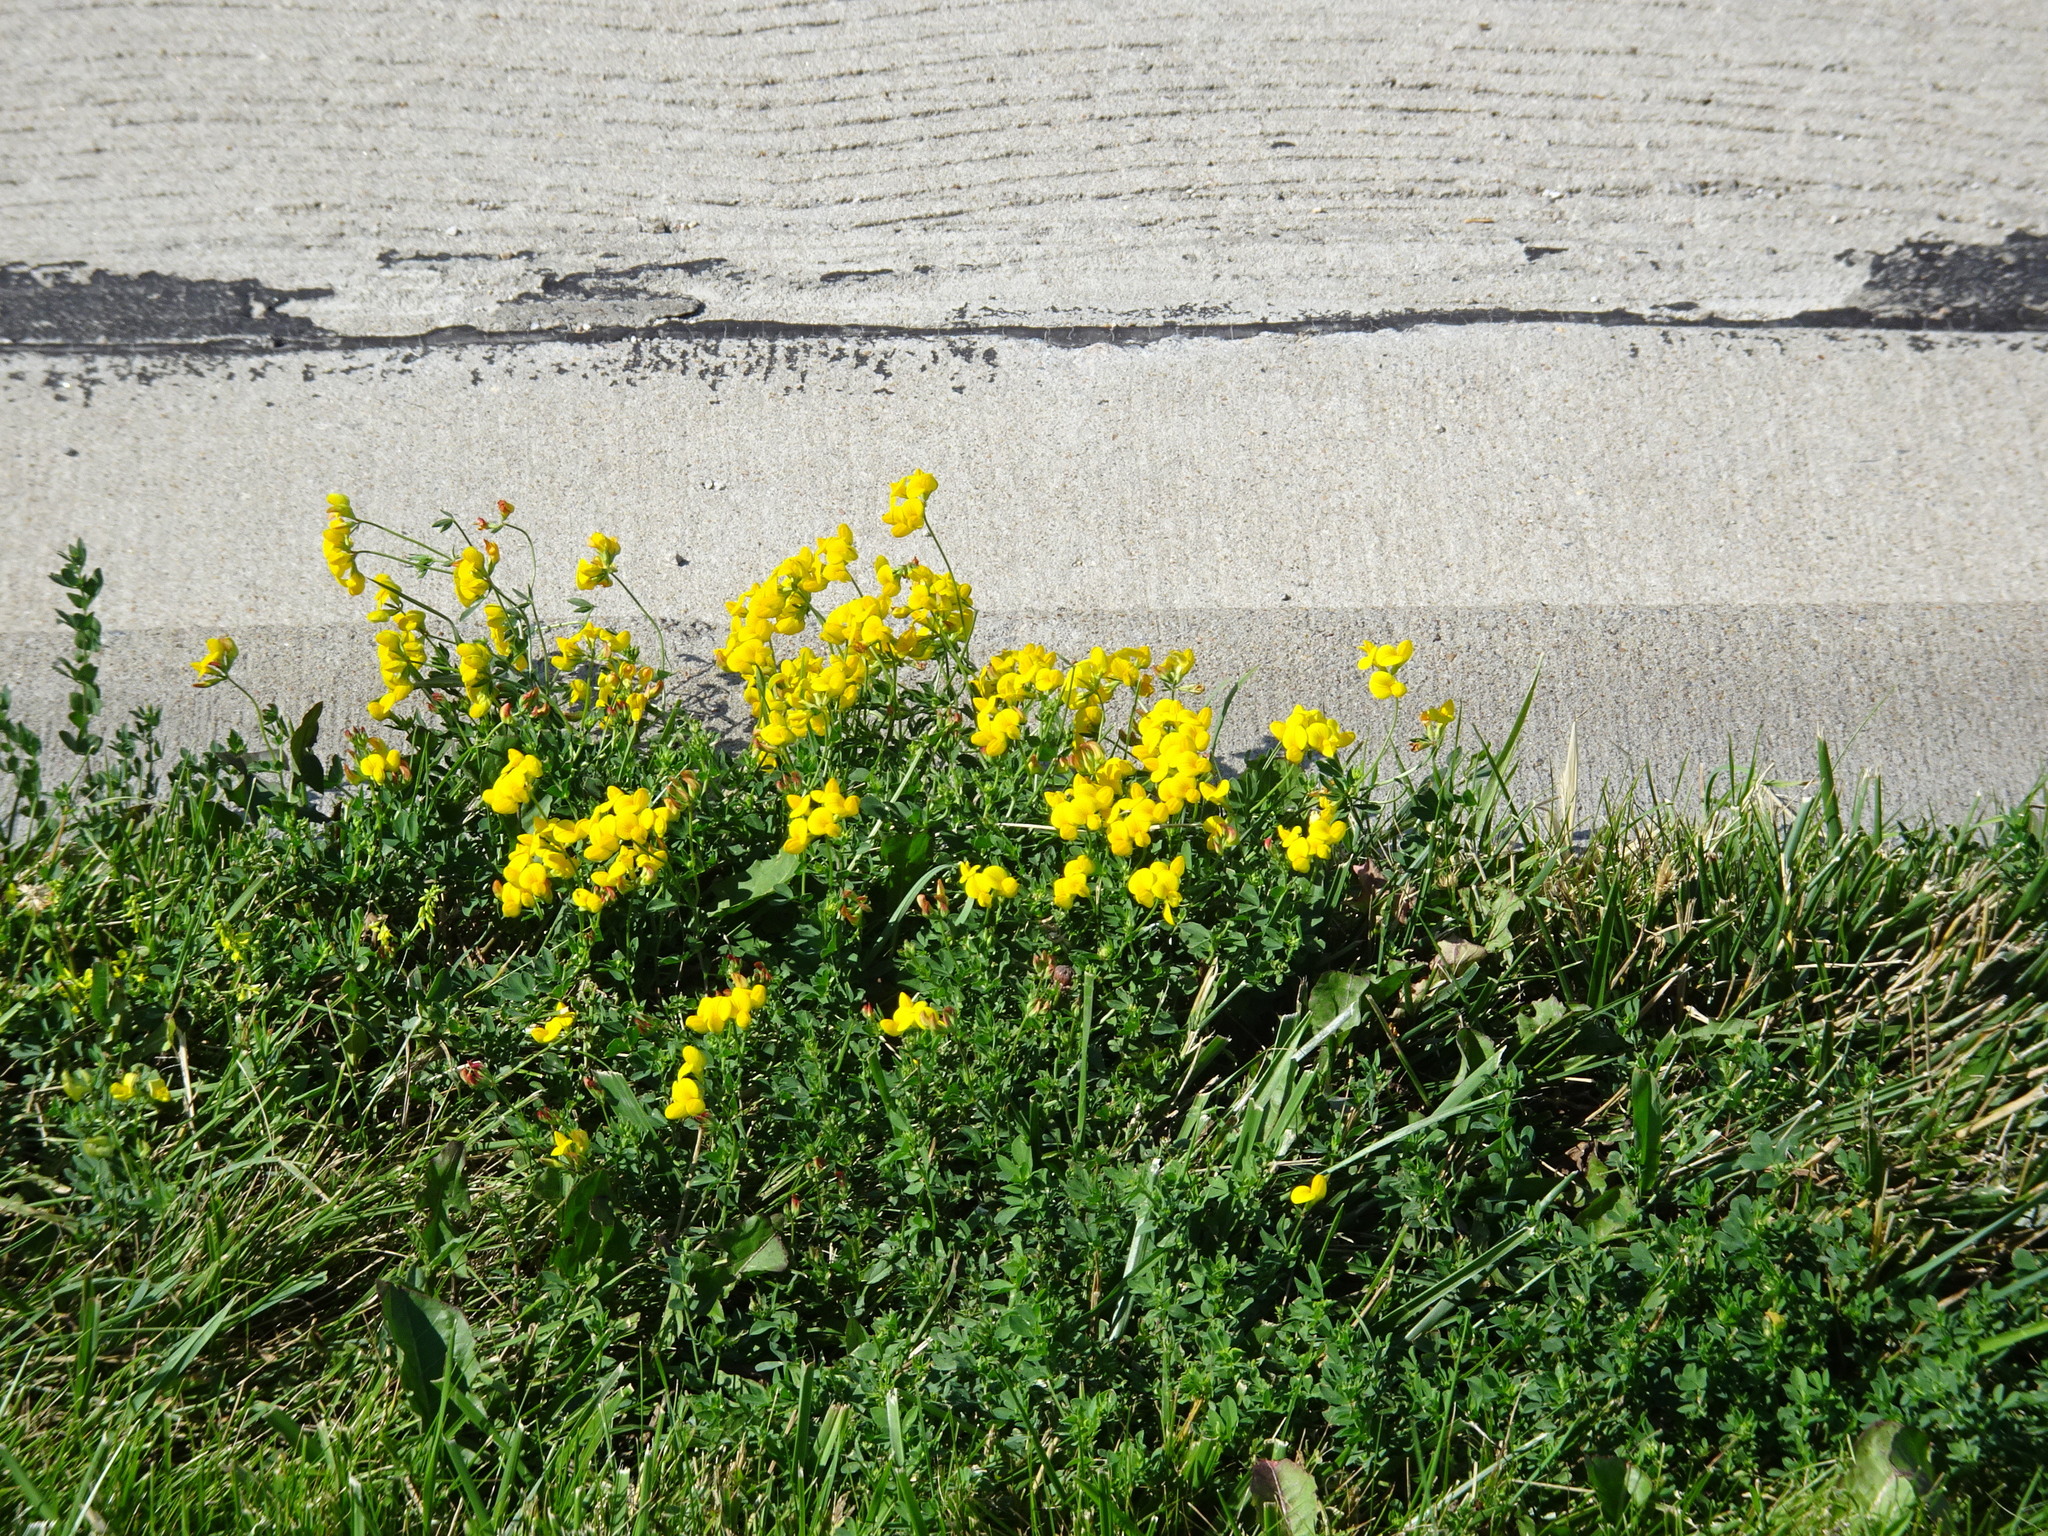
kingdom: Plantae
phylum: Tracheophyta
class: Magnoliopsida
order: Fabales
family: Fabaceae
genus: Lotus
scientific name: Lotus corniculatus
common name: Common bird's-foot-trefoil
